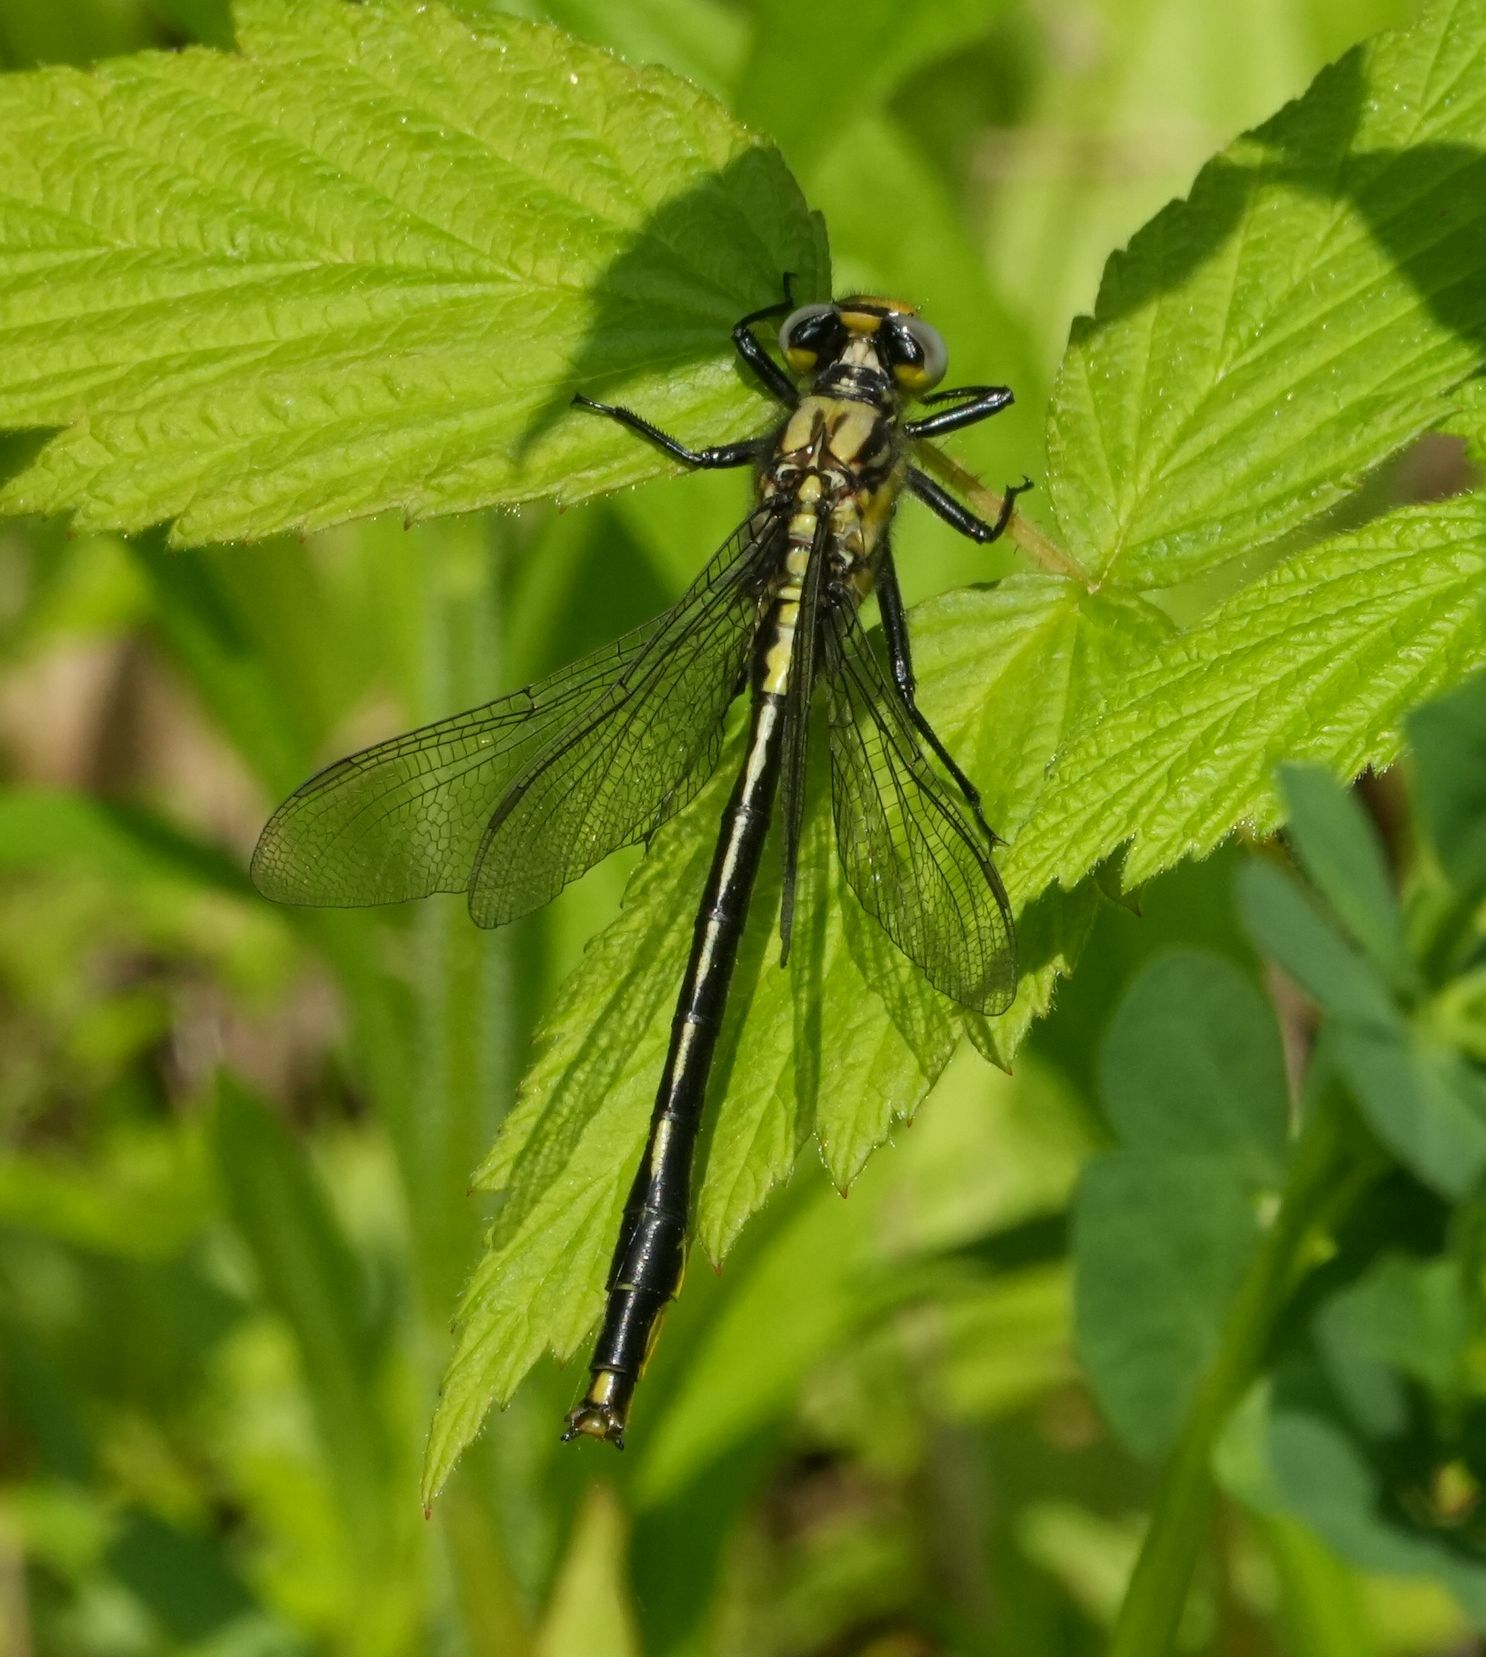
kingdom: Animalia
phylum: Arthropoda
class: Insecta
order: Odonata
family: Gomphidae
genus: Arigomphus
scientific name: Arigomphus furcifer
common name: Lilypad clubtail
